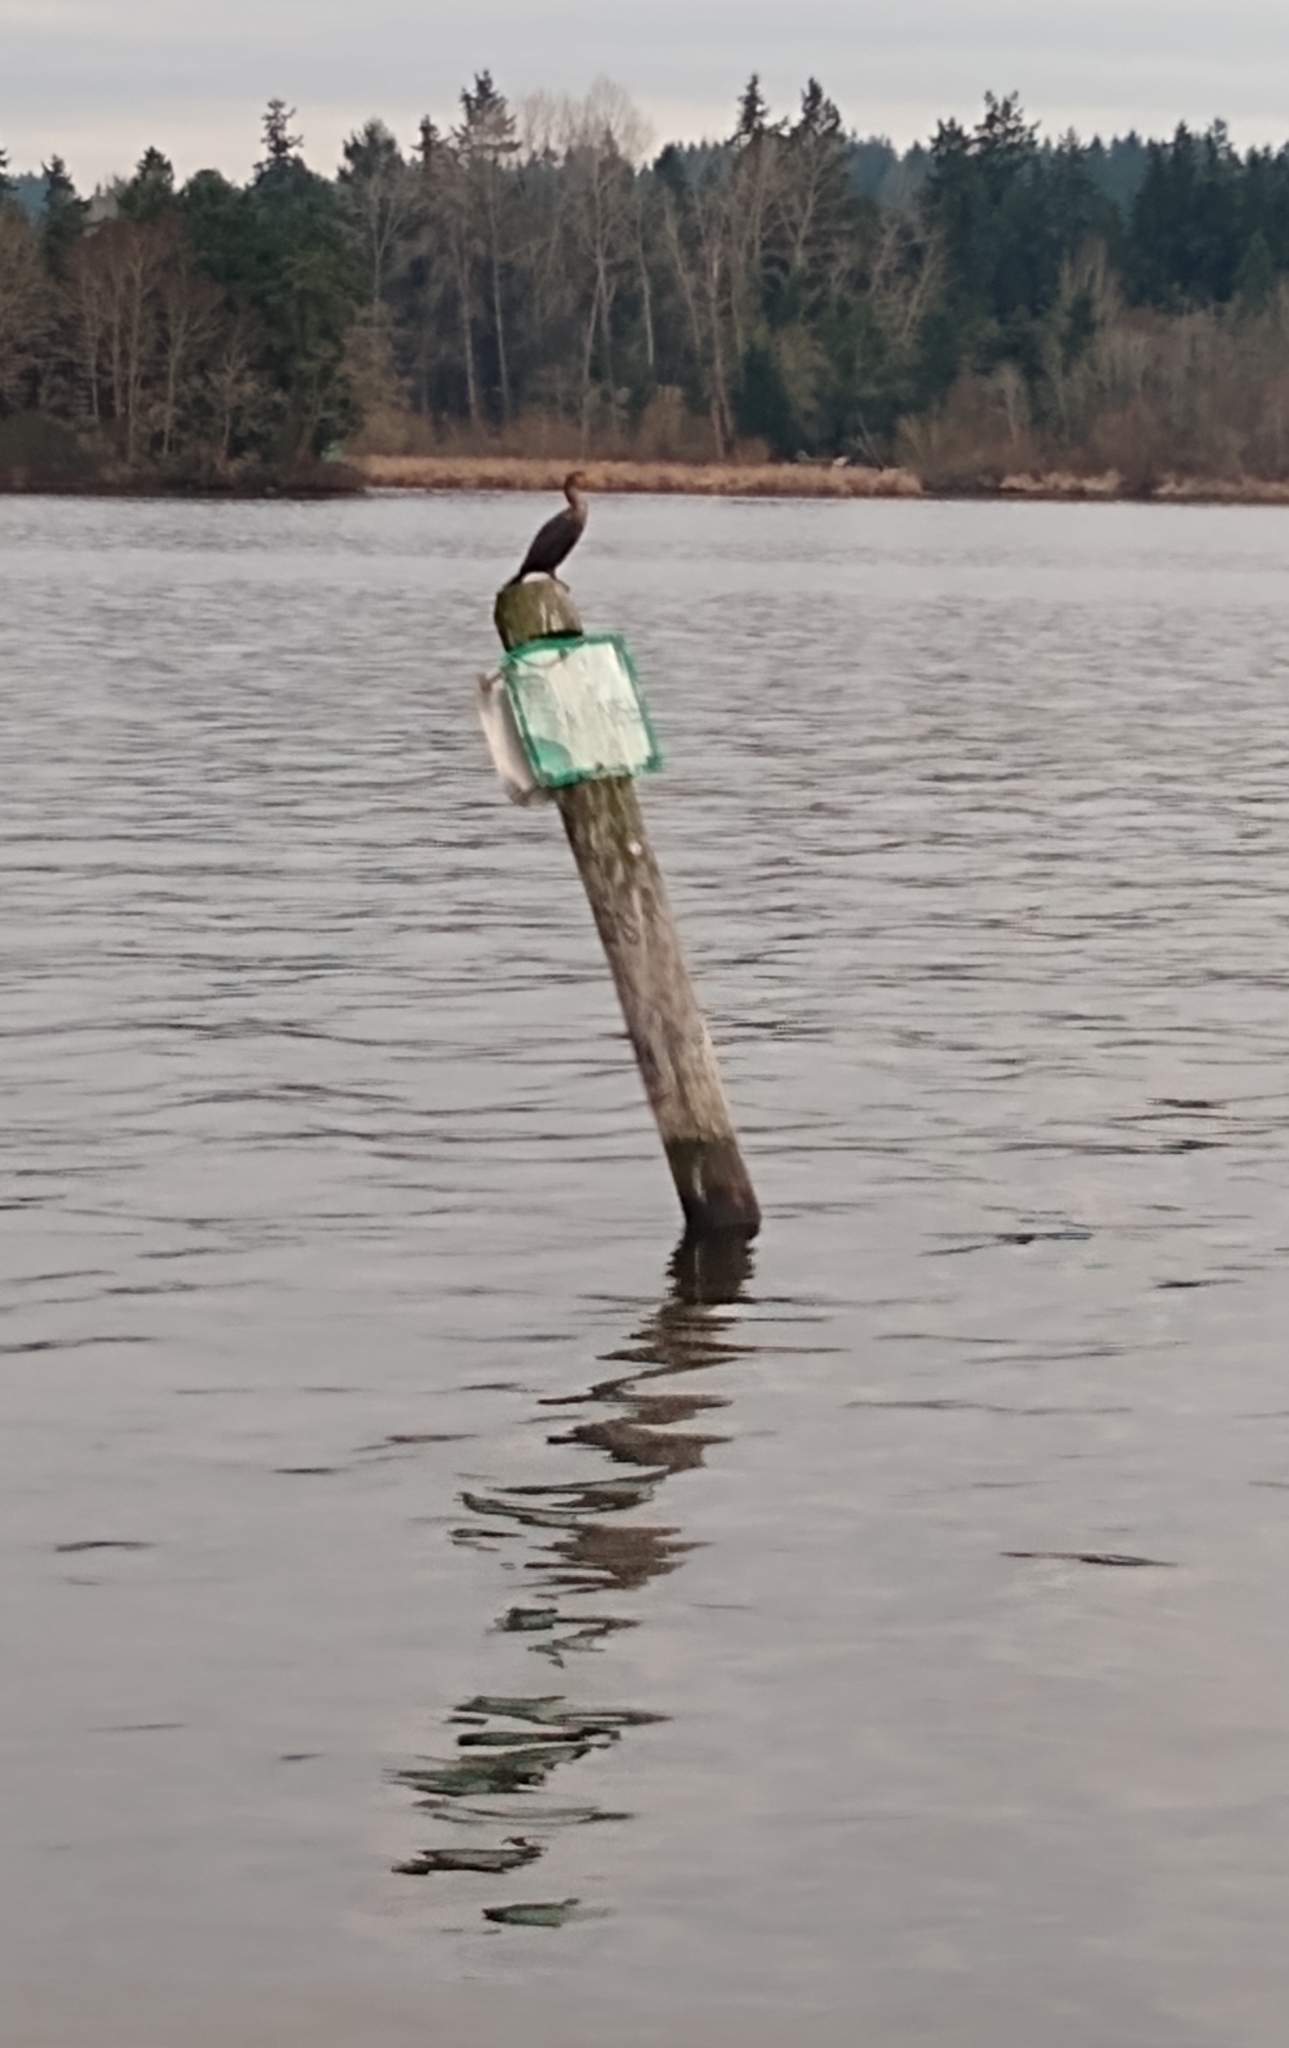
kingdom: Animalia
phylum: Chordata
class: Aves
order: Suliformes
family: Phalacrocoracidae
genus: Phalacrocorax
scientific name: Phalacrocorax auritus
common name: Double-crested cormorant
